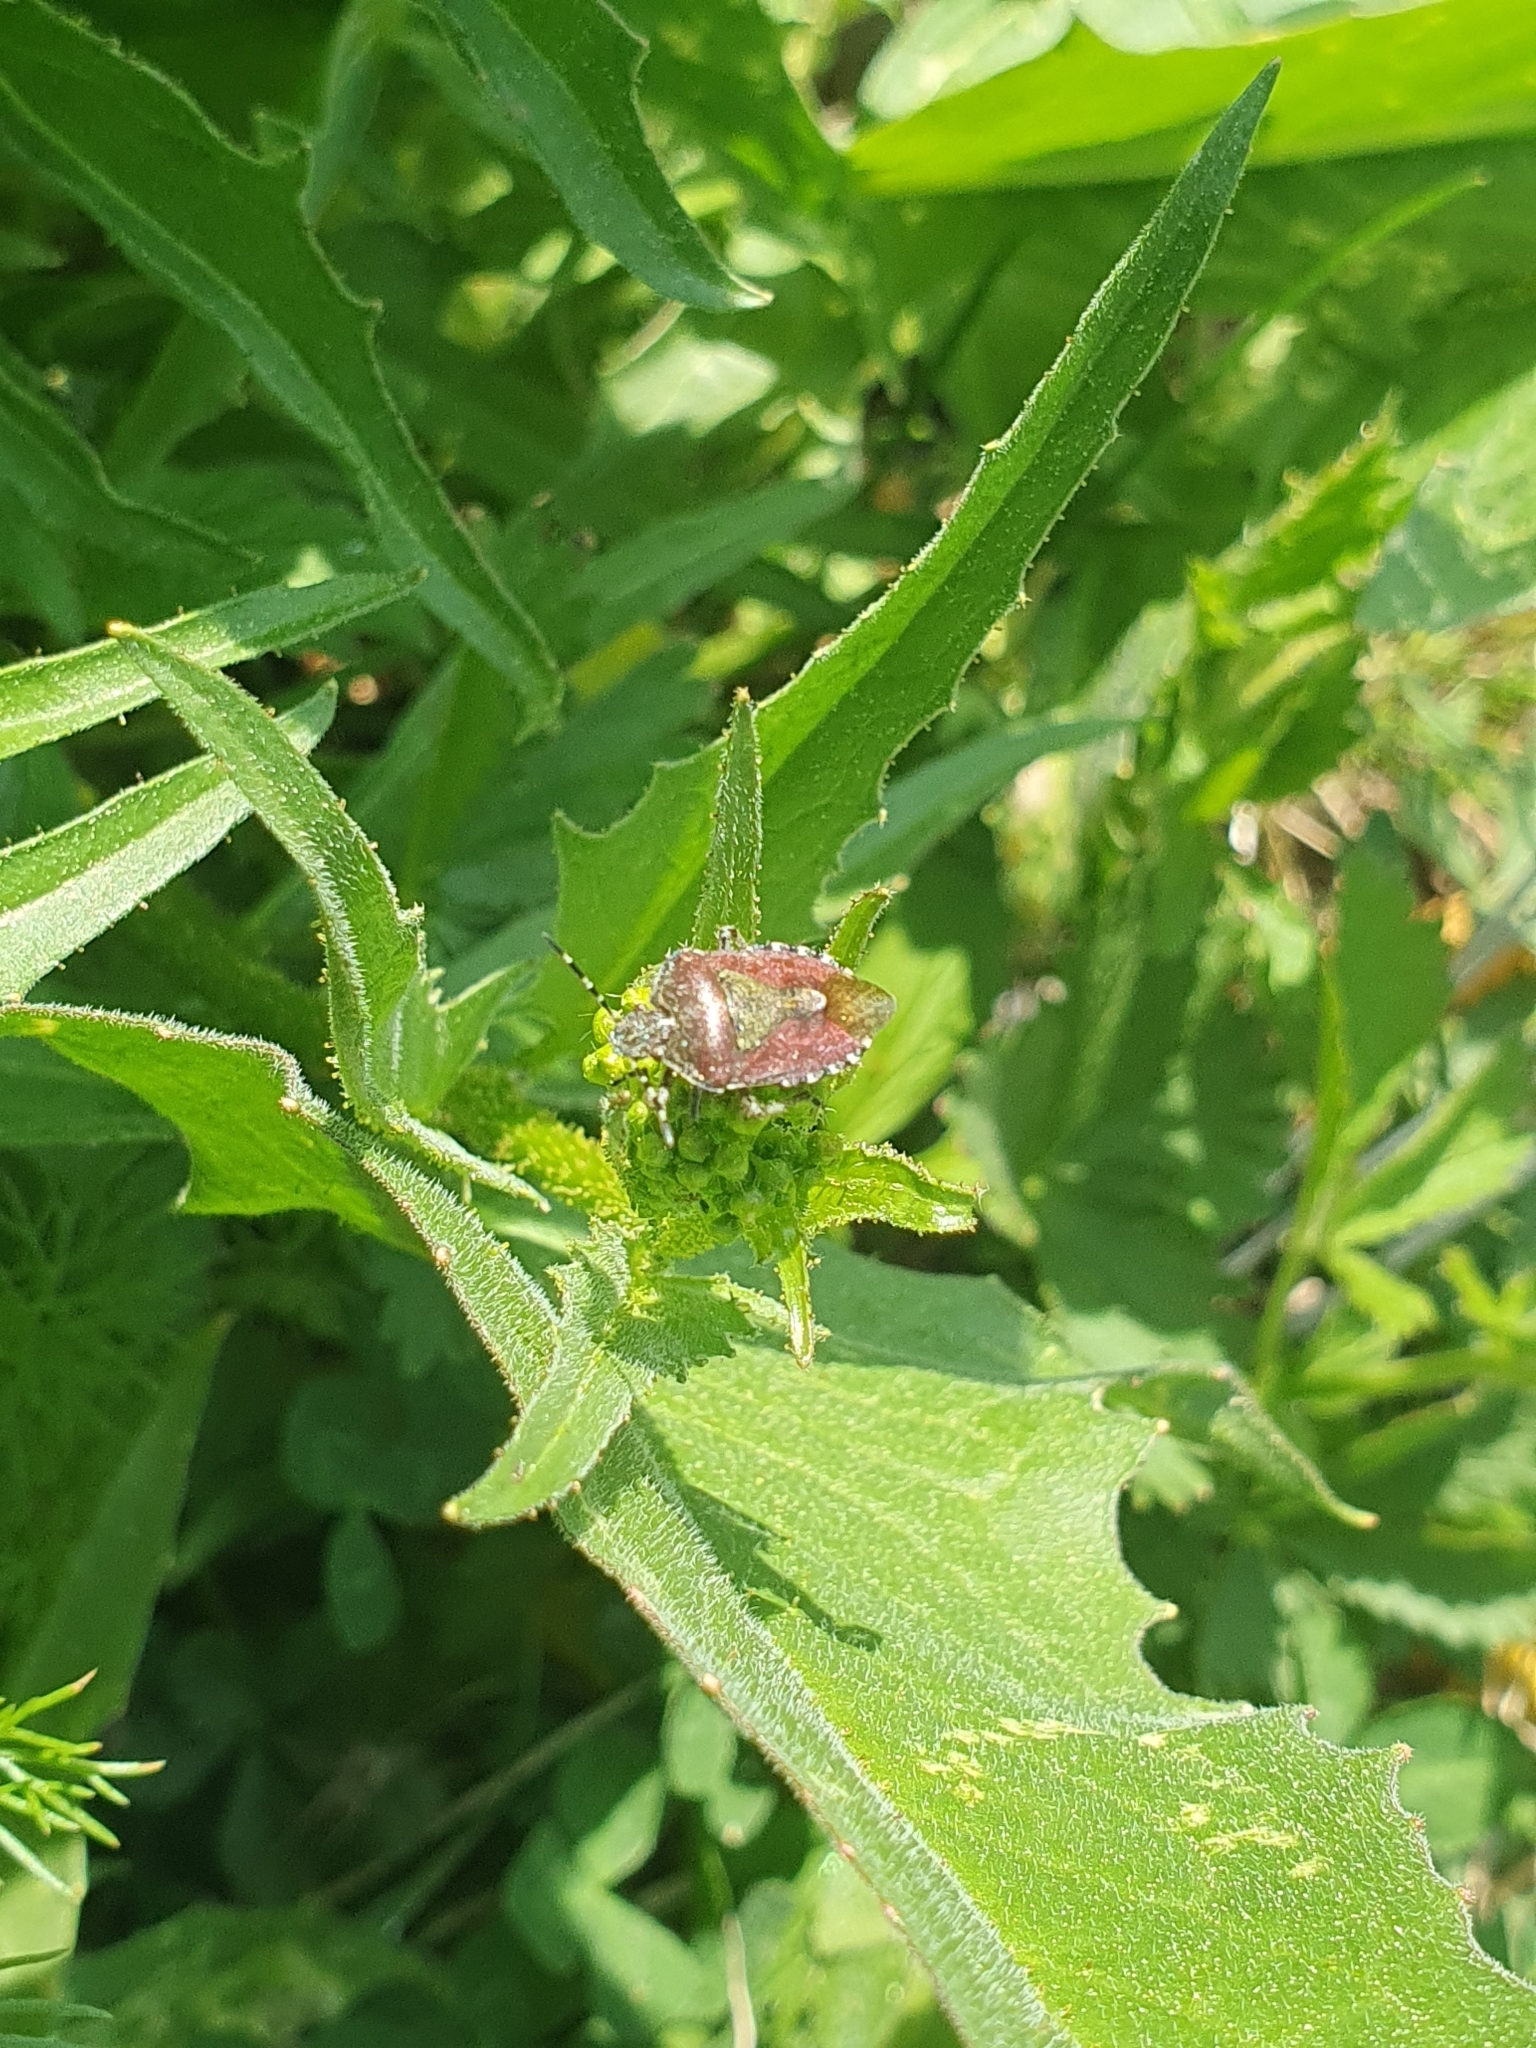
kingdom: Animalia
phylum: Arthropoda
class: Insecta
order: Hemiptera
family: Pentatomidae
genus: Dolycoris
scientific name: Dolycoris baccarum
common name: Sloe bug
